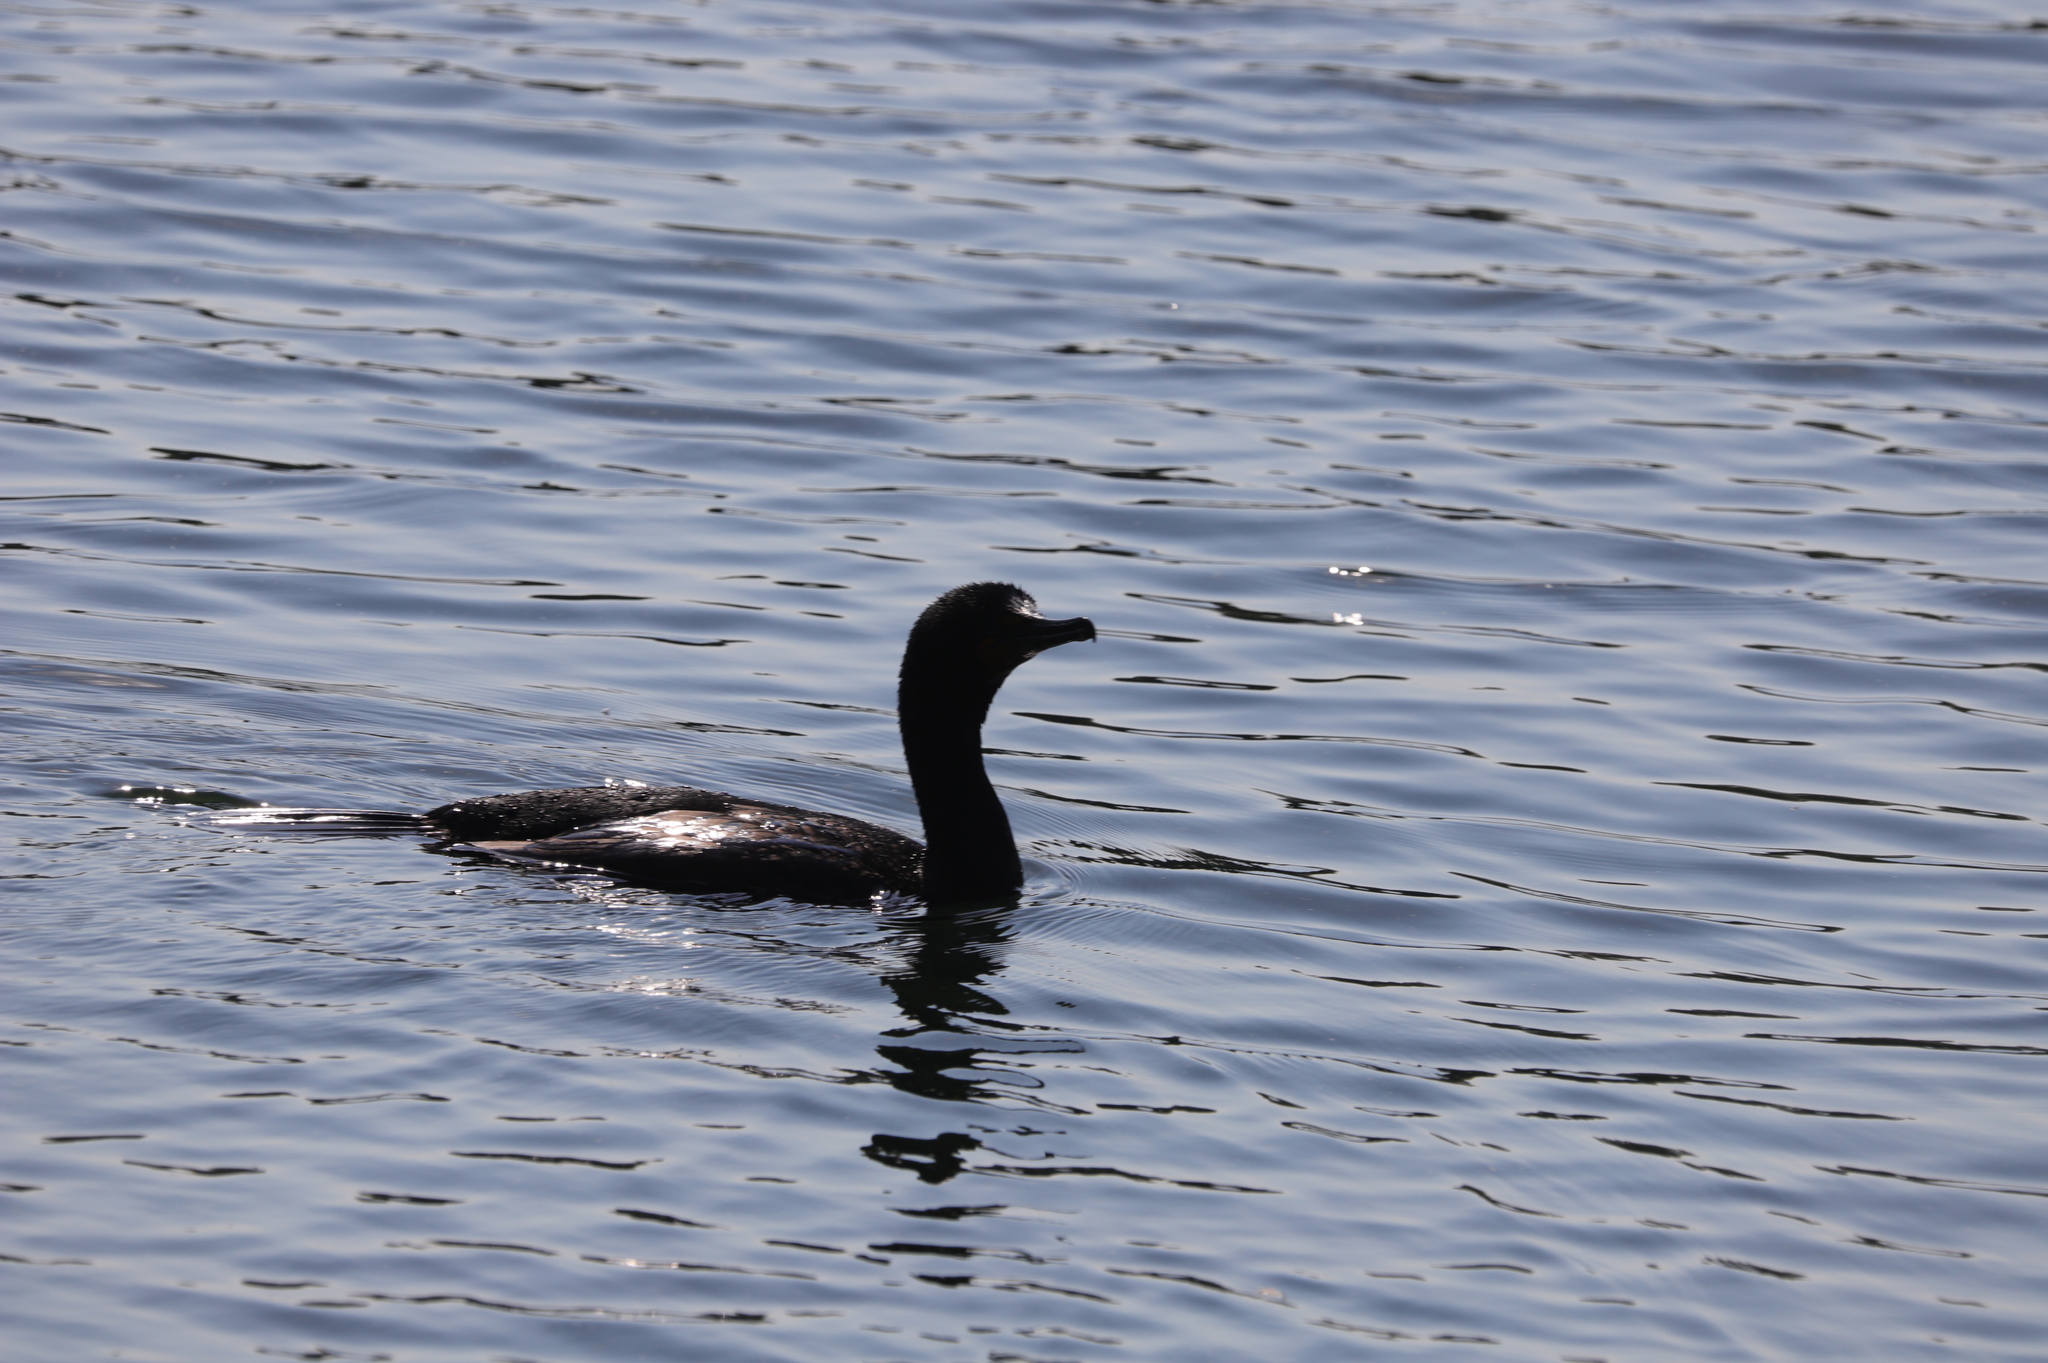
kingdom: Animalia
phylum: Chordata
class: Aves
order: Suliformes
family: Phalacrocoracidae
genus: Phalacrocorax
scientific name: Phalacrocorax auritus
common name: Double-crested cormorant
